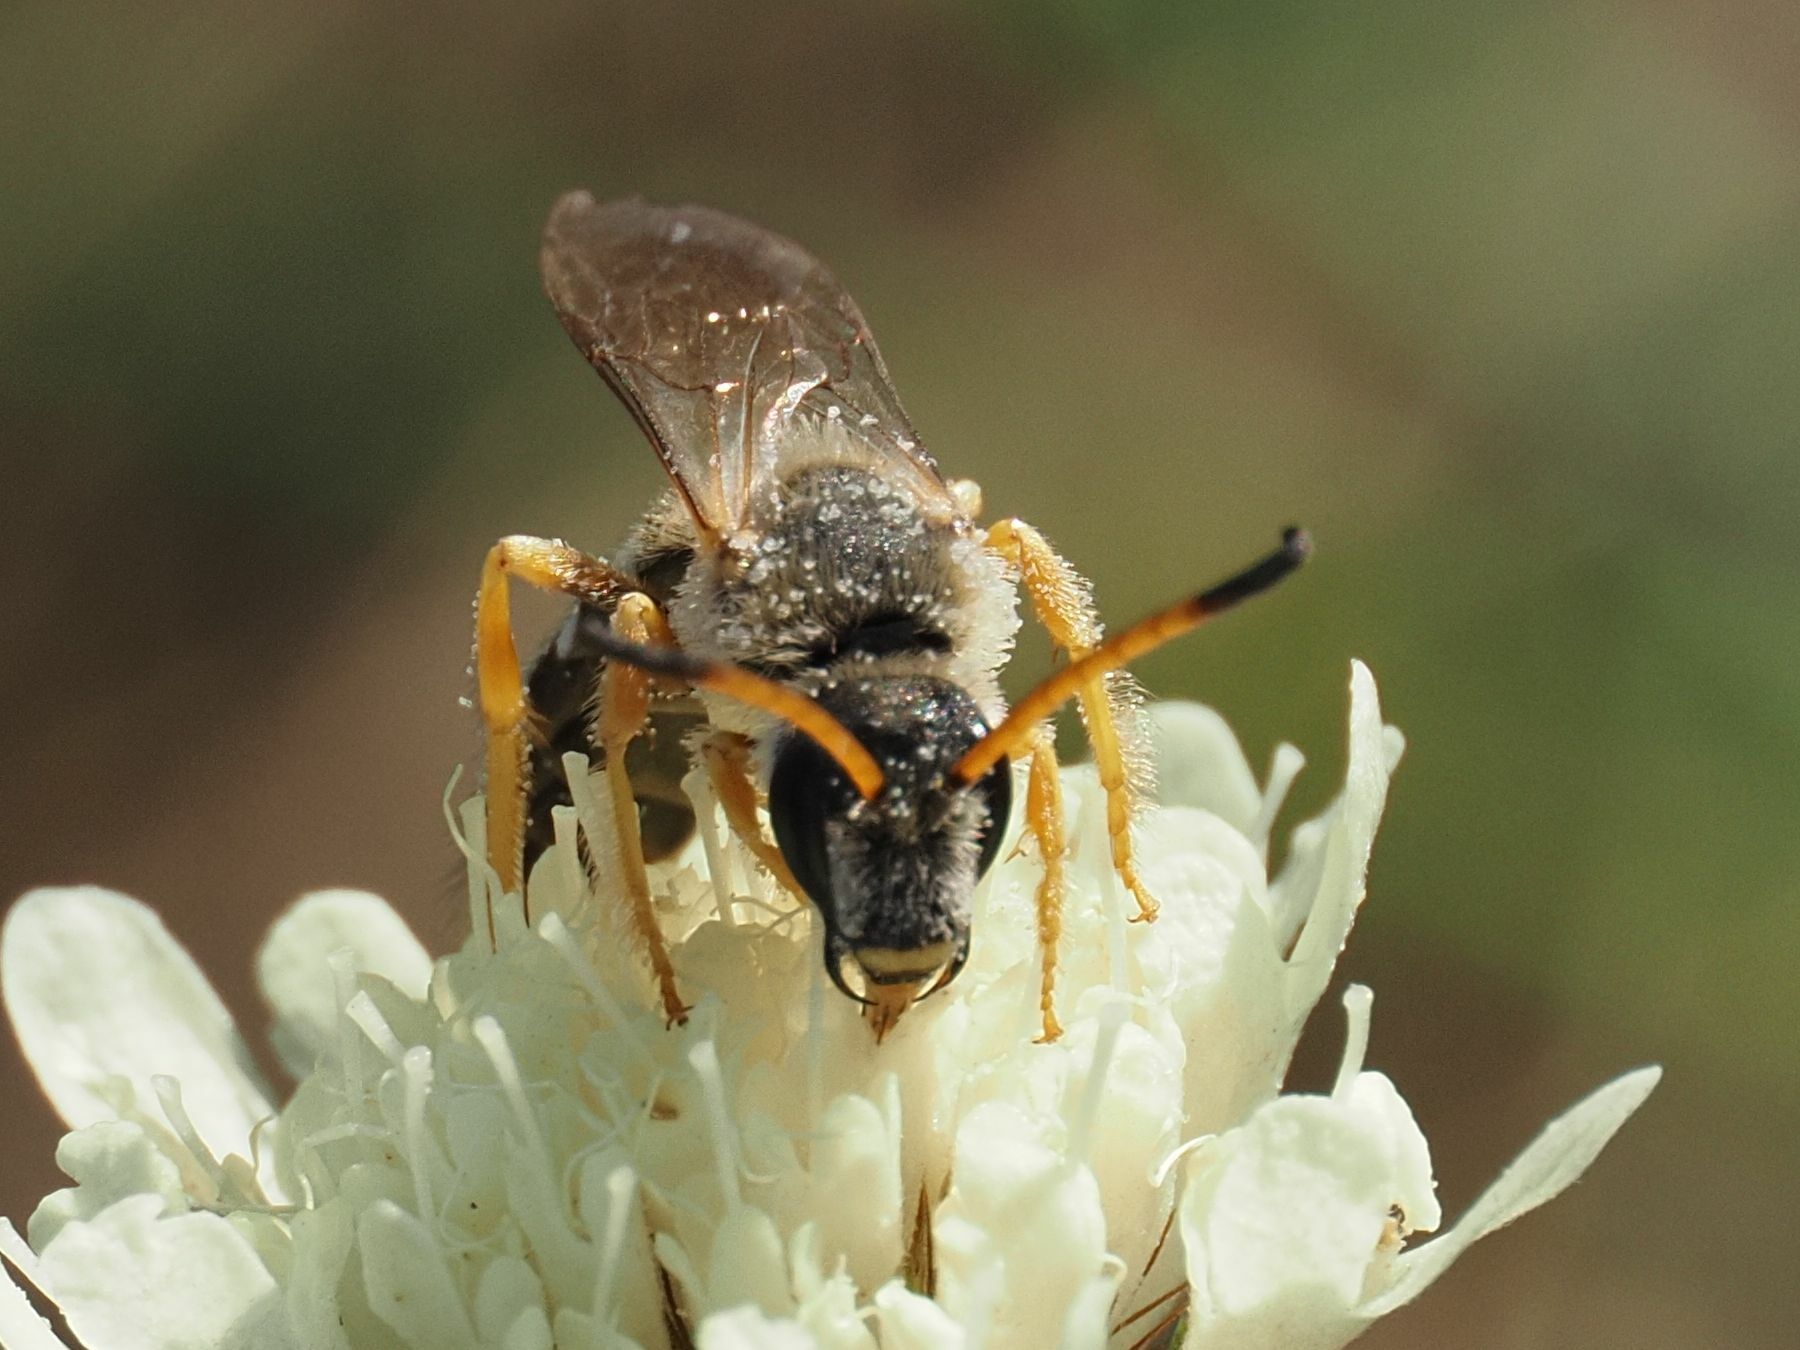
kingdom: Animalia
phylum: Arthropoda
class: Insecta
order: Hymenoptera
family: Halictidae
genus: Halictus
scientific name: Halictus sexcinctus
